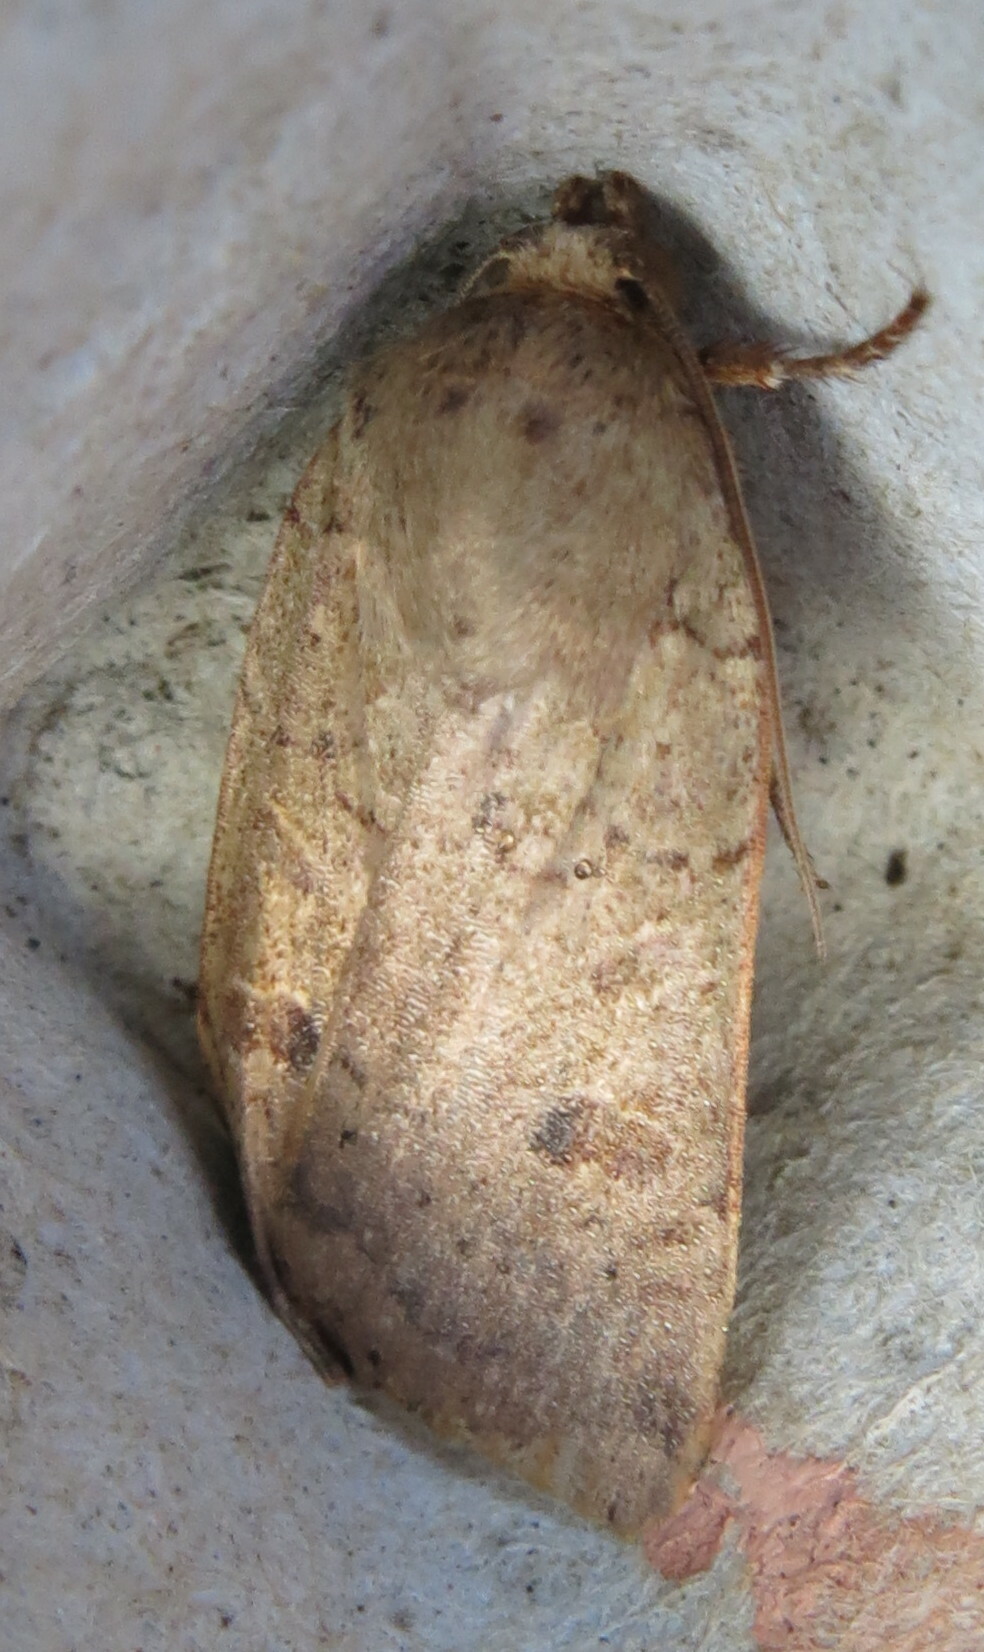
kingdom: Animalia
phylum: Arthropoda
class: Insecta
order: Lepidoptera
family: Noctuidae
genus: Noctua
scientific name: Noctua comes
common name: Lesser yellow underwing
